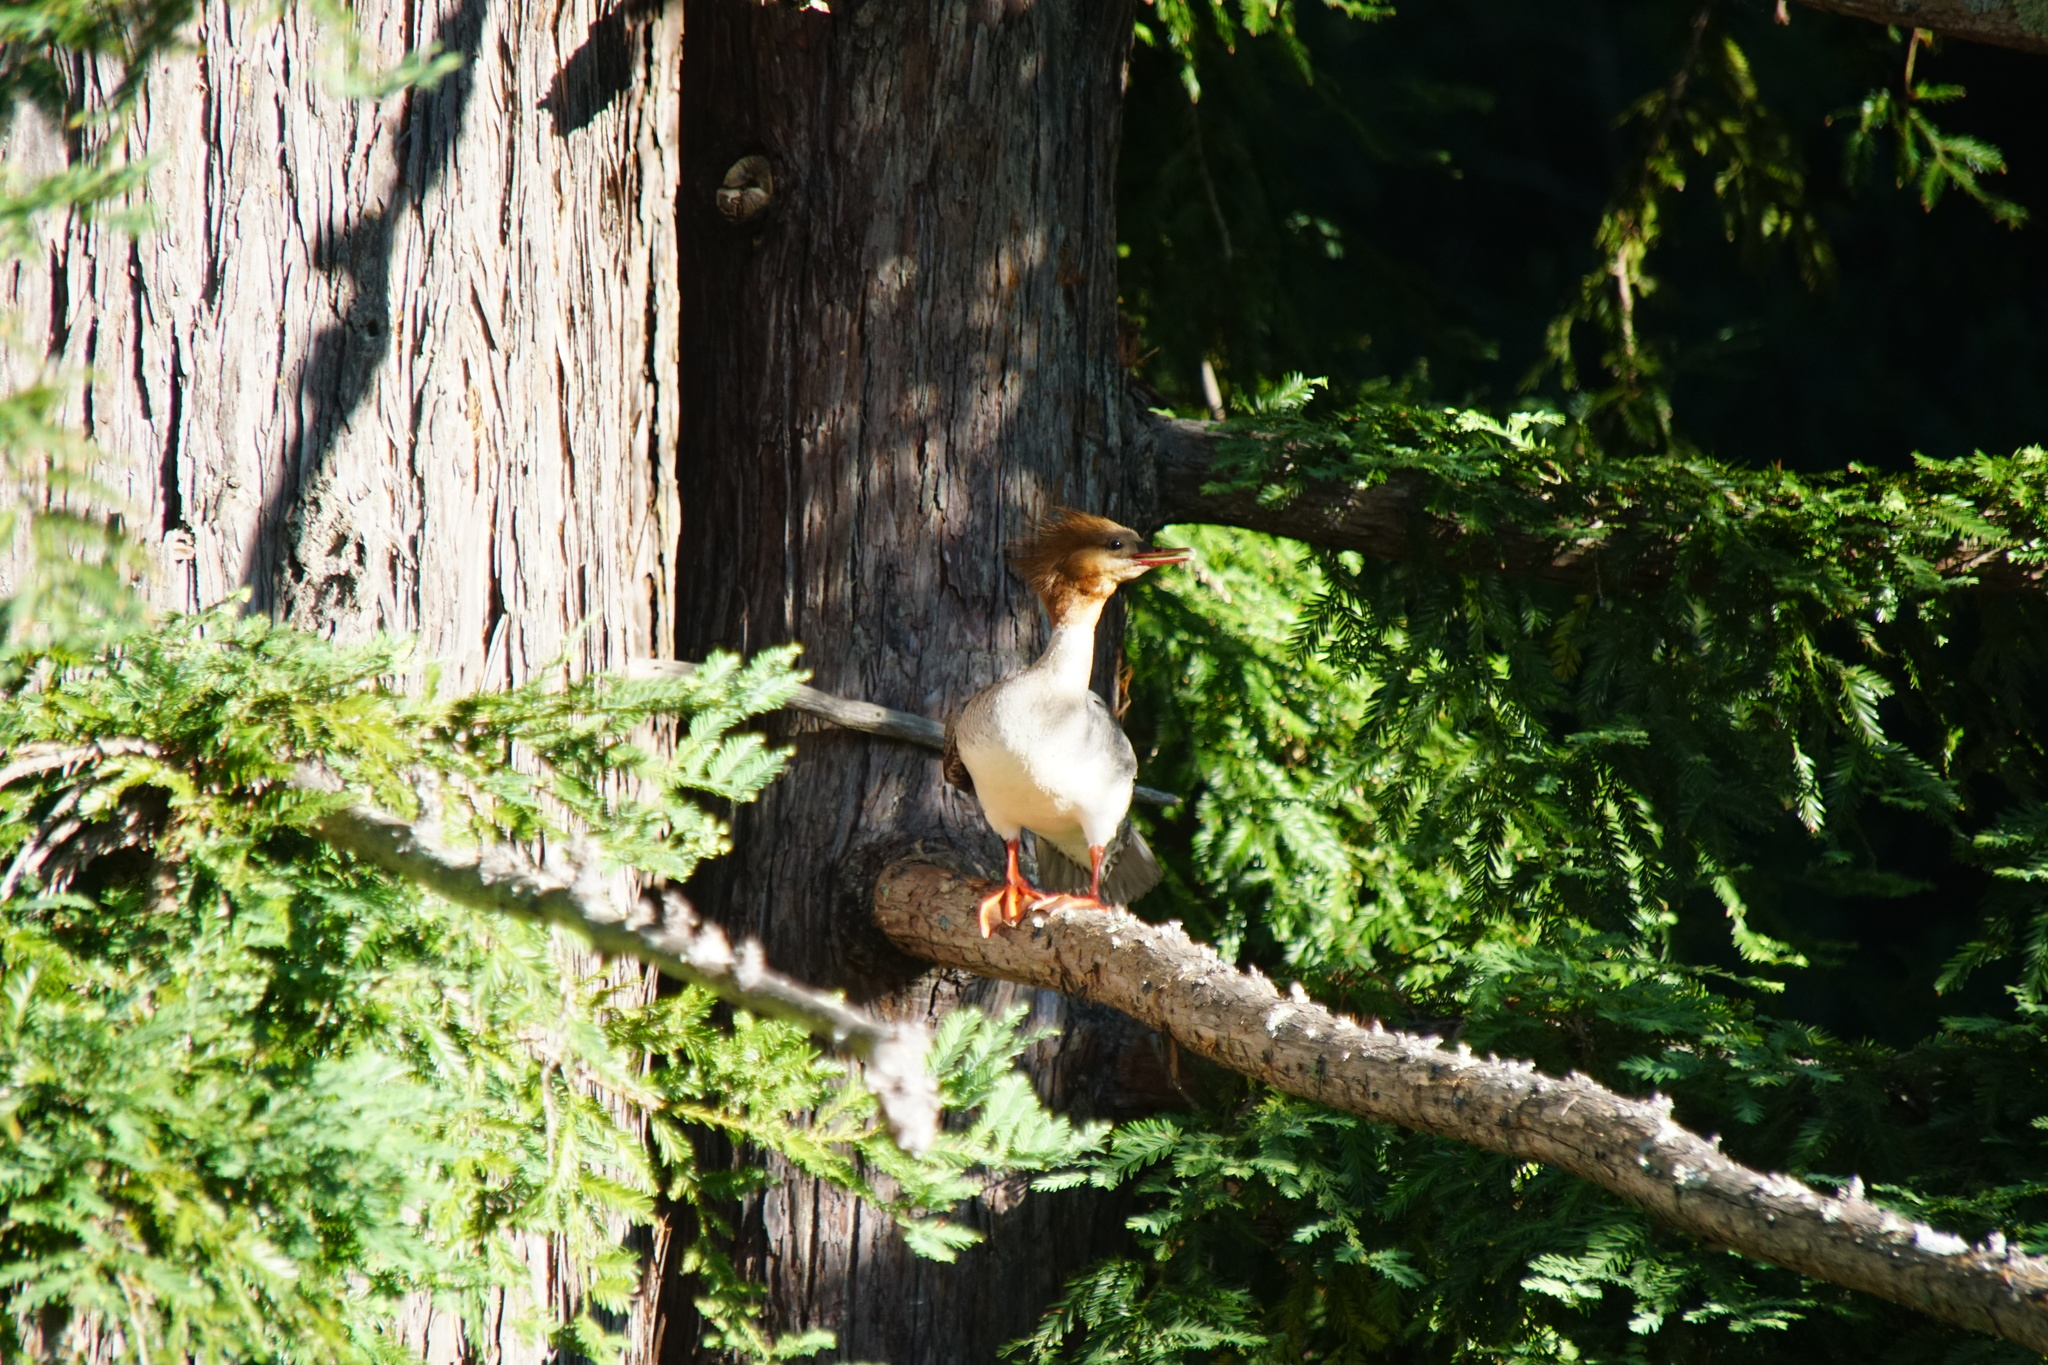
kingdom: Animalia
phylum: Chordata
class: Aves
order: Anseriformes
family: Anatidae
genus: Mergus
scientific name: Mergus merganser
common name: Common merganser
